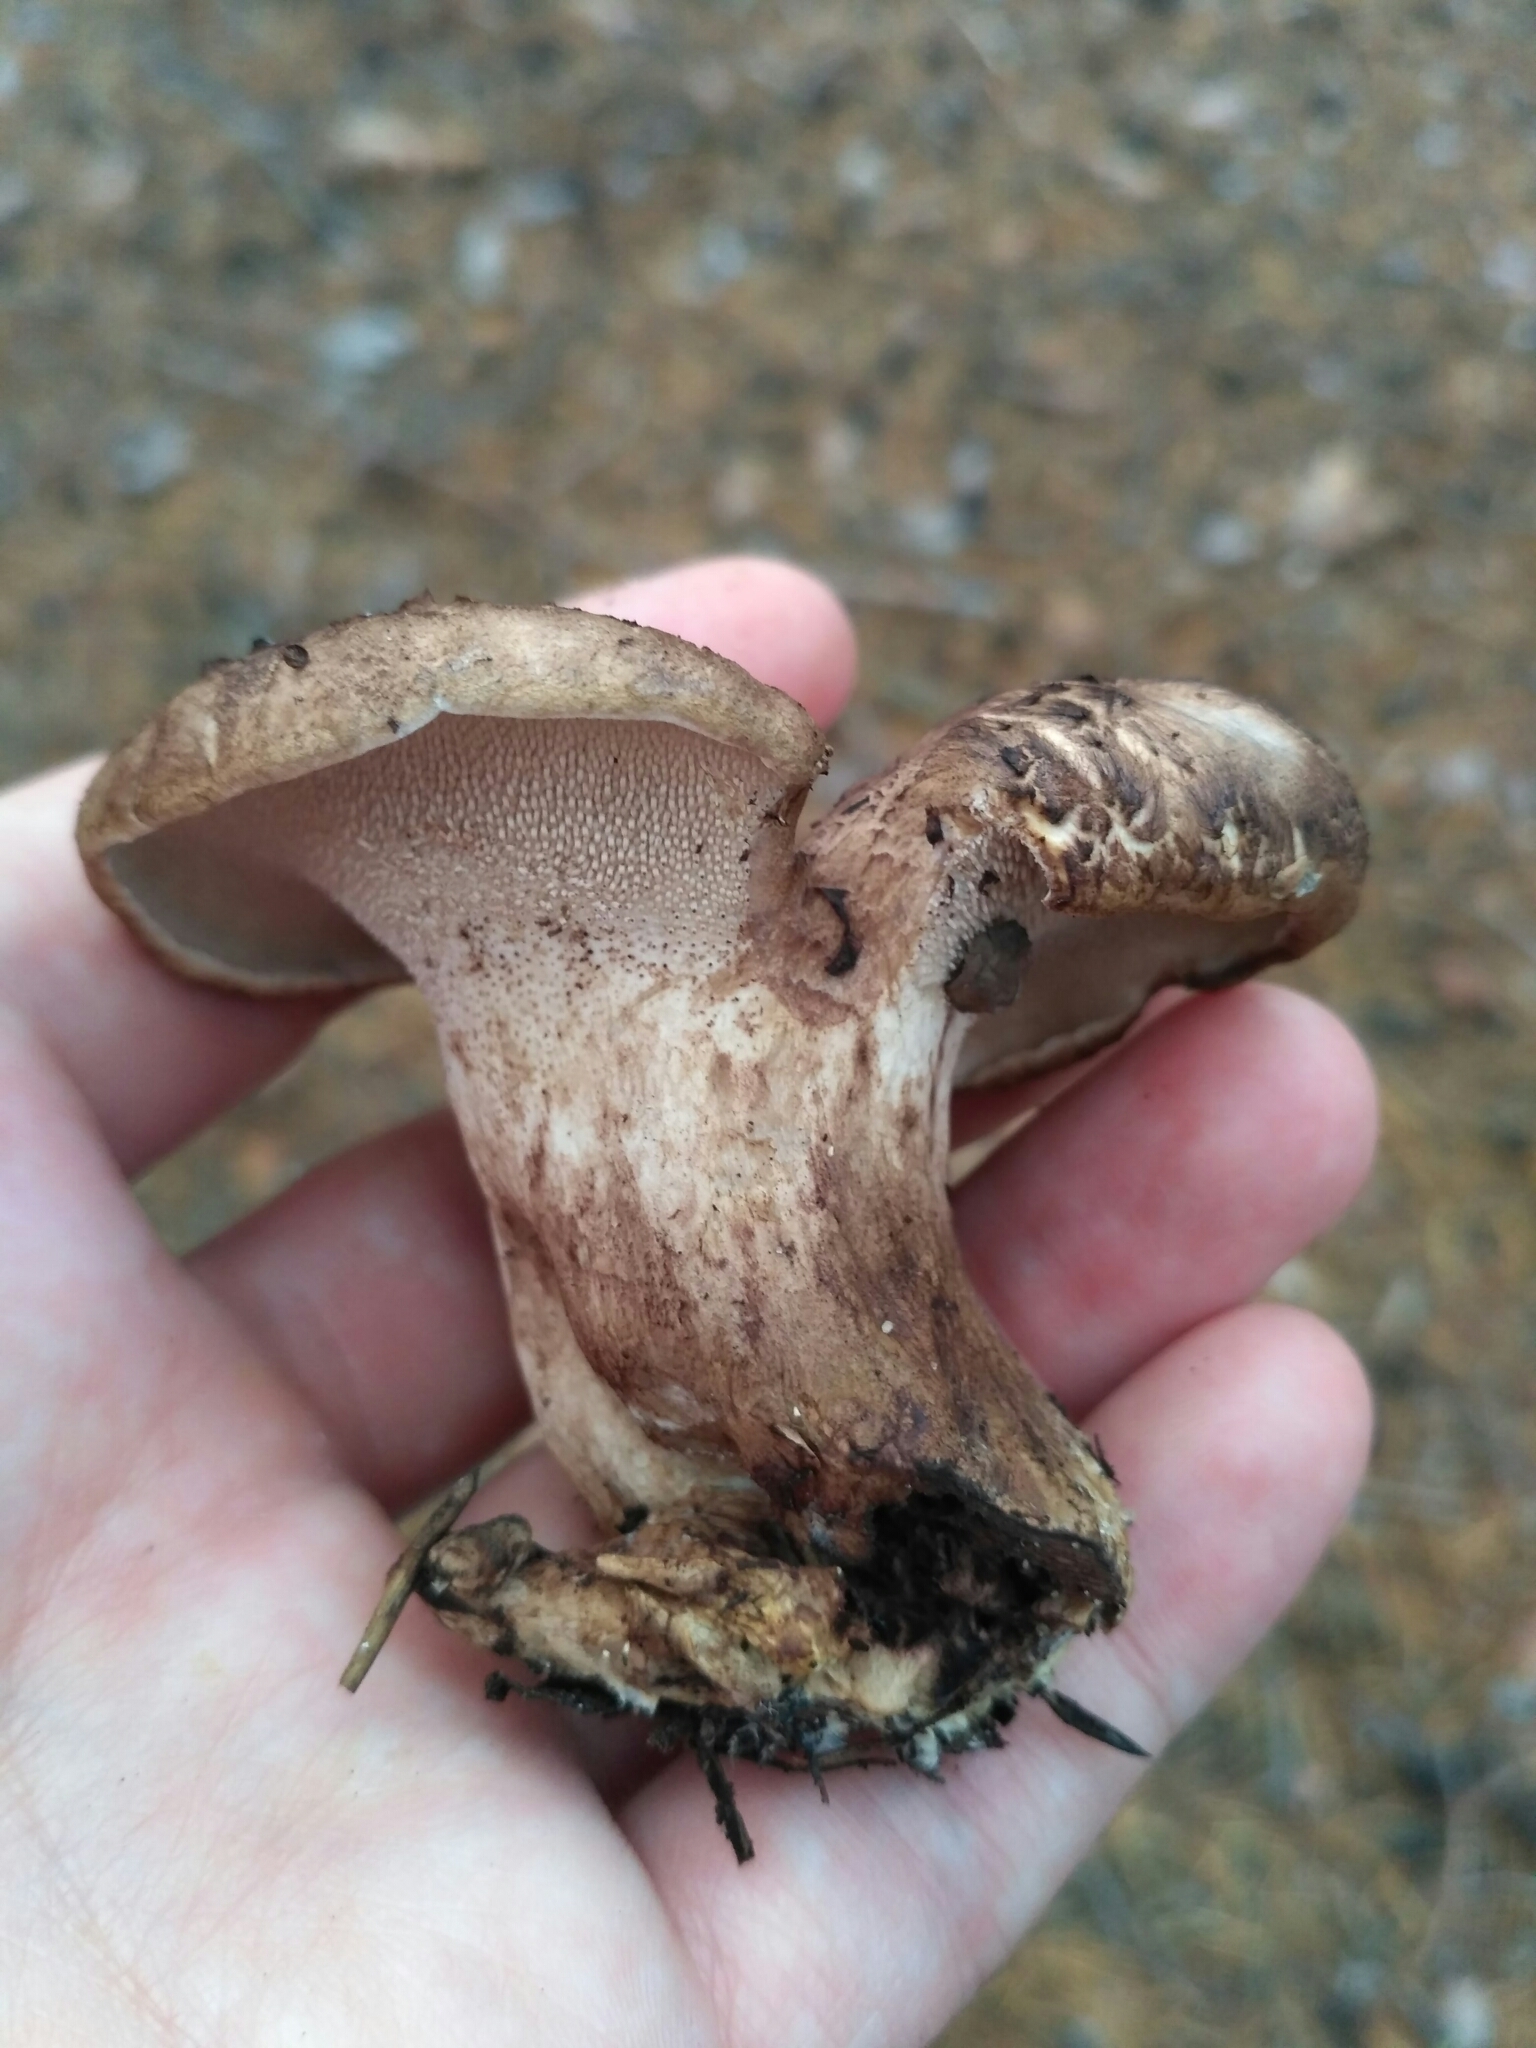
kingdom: Fungi
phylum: Basidiomycota
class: Agaricomycetes
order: Thelephorales
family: Bankeraceae
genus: Sarcodon
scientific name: Sarcodon imbricatus
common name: Shingled hedgehog
